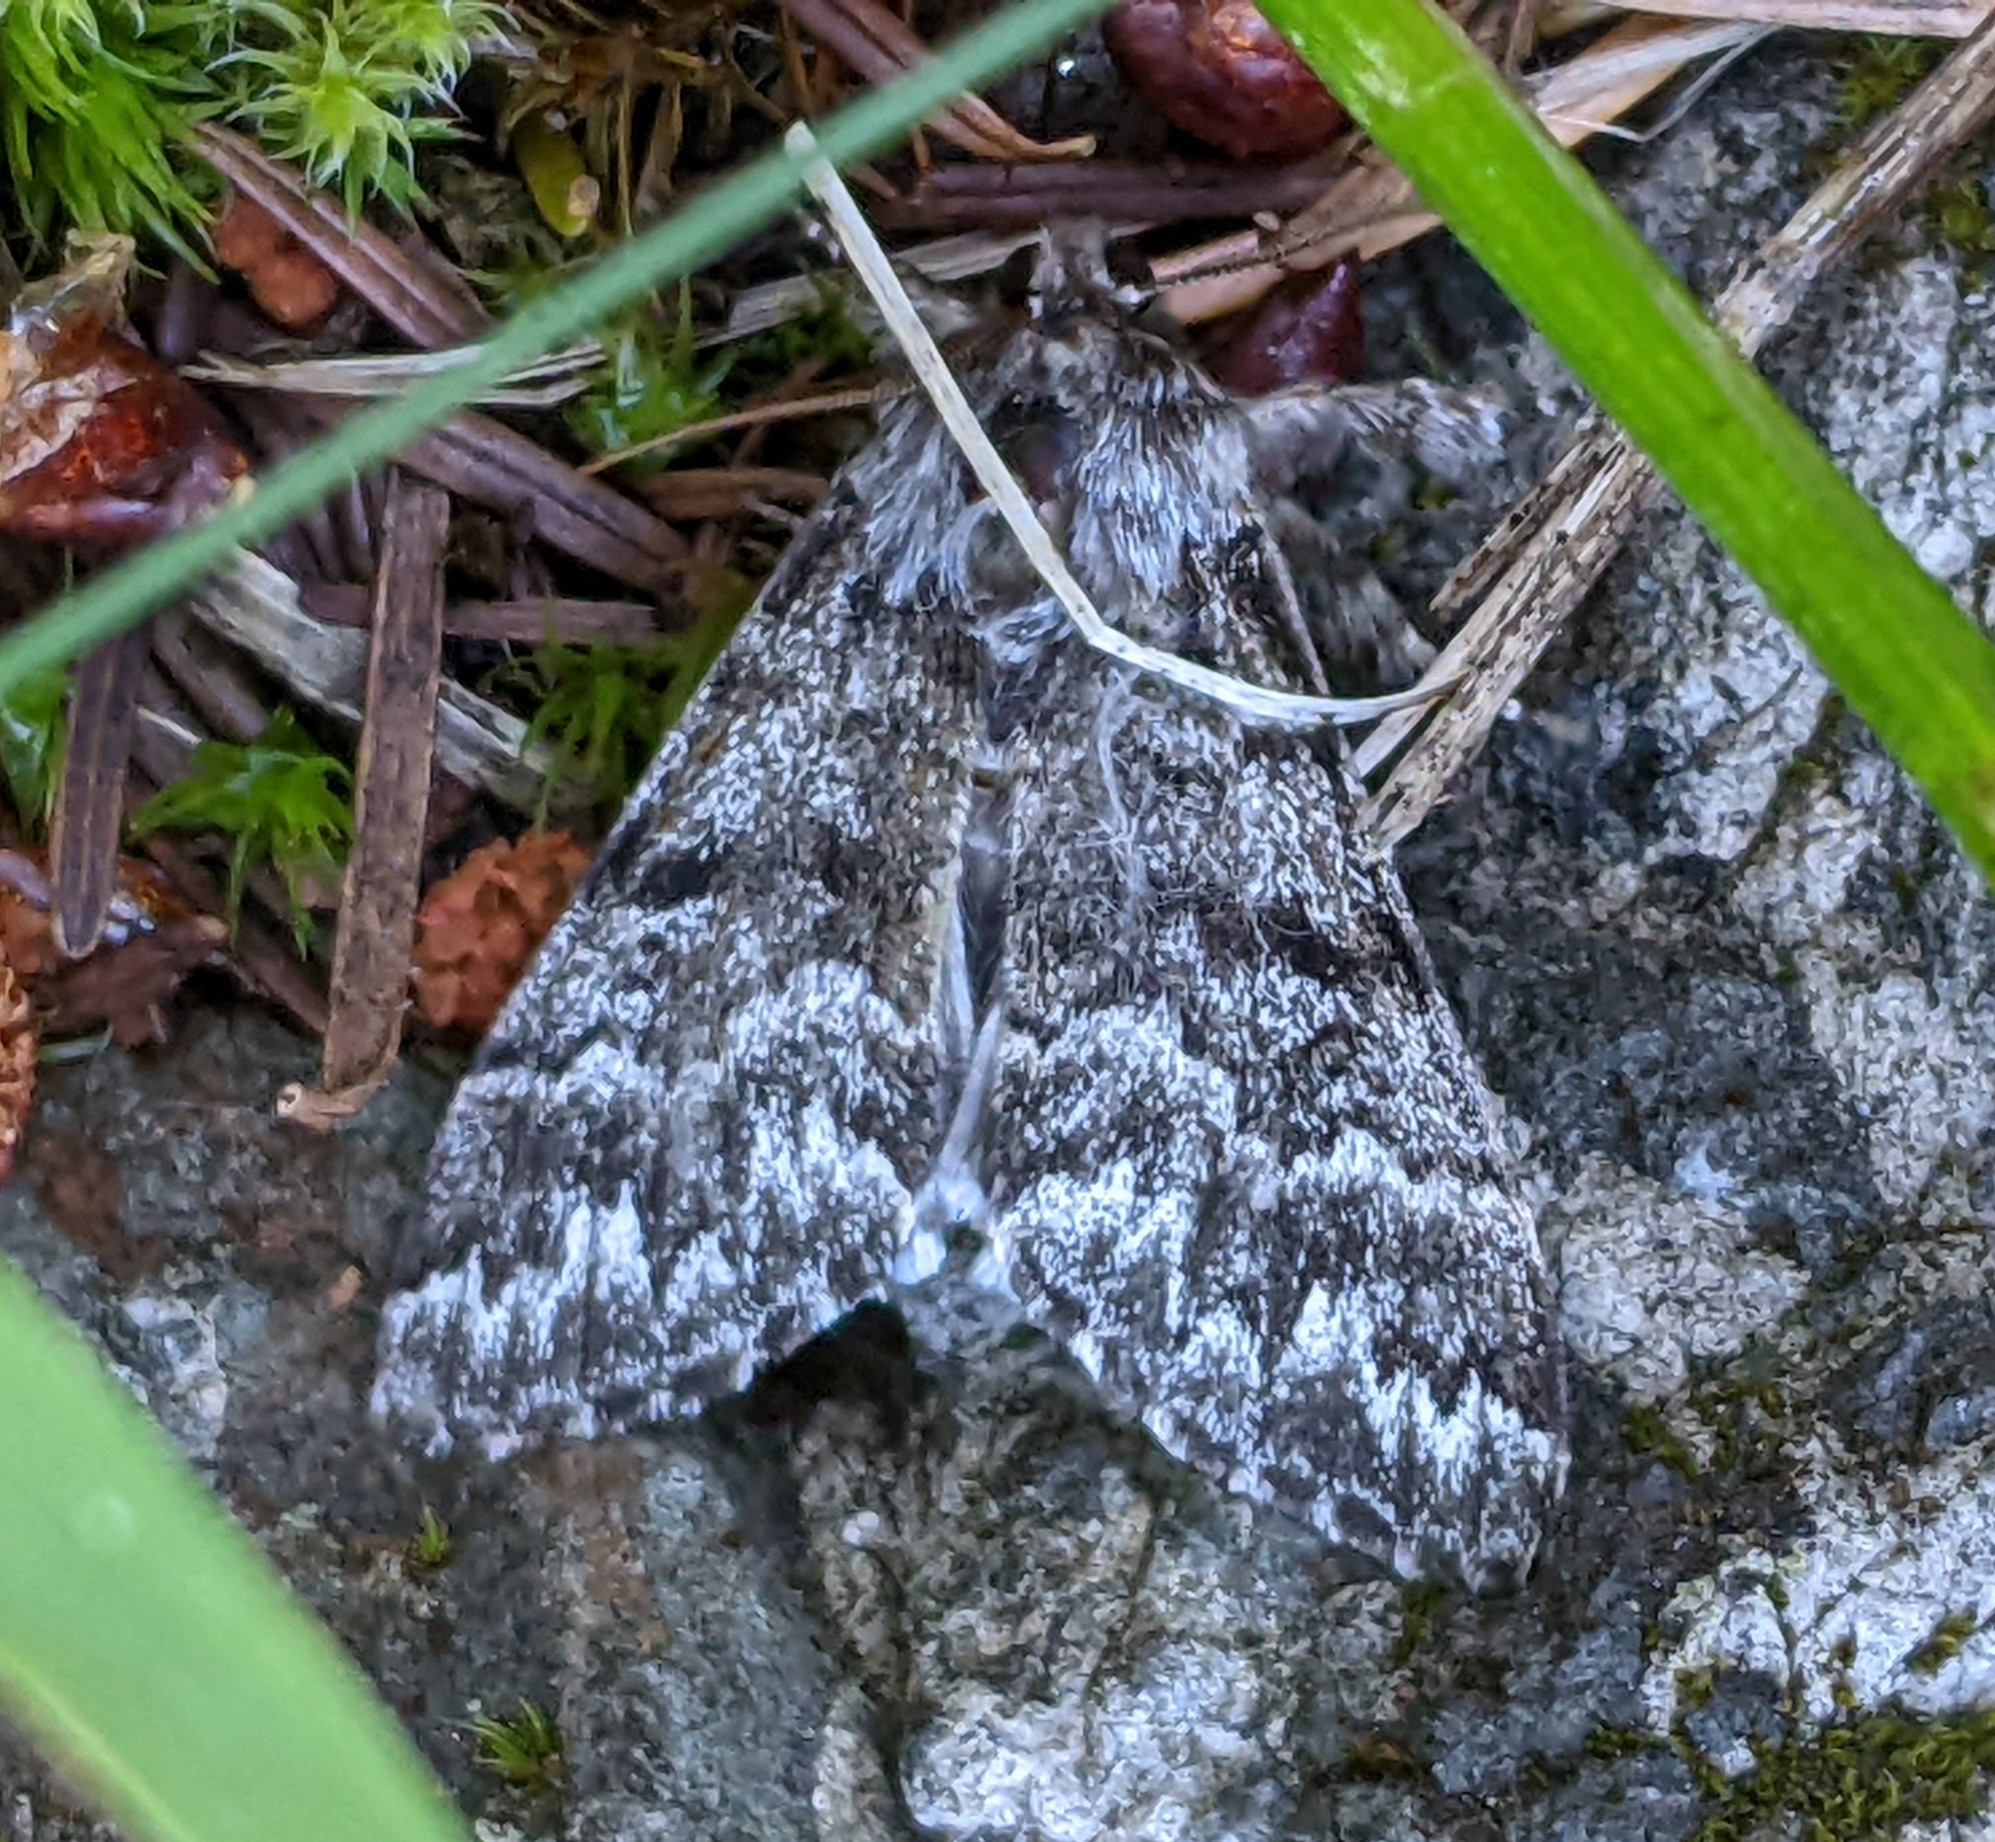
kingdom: Animalia
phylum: Arthropoda
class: Insecta
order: Lepidoptera
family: Noctuidae
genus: Panthea
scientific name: Panthea virginarius
